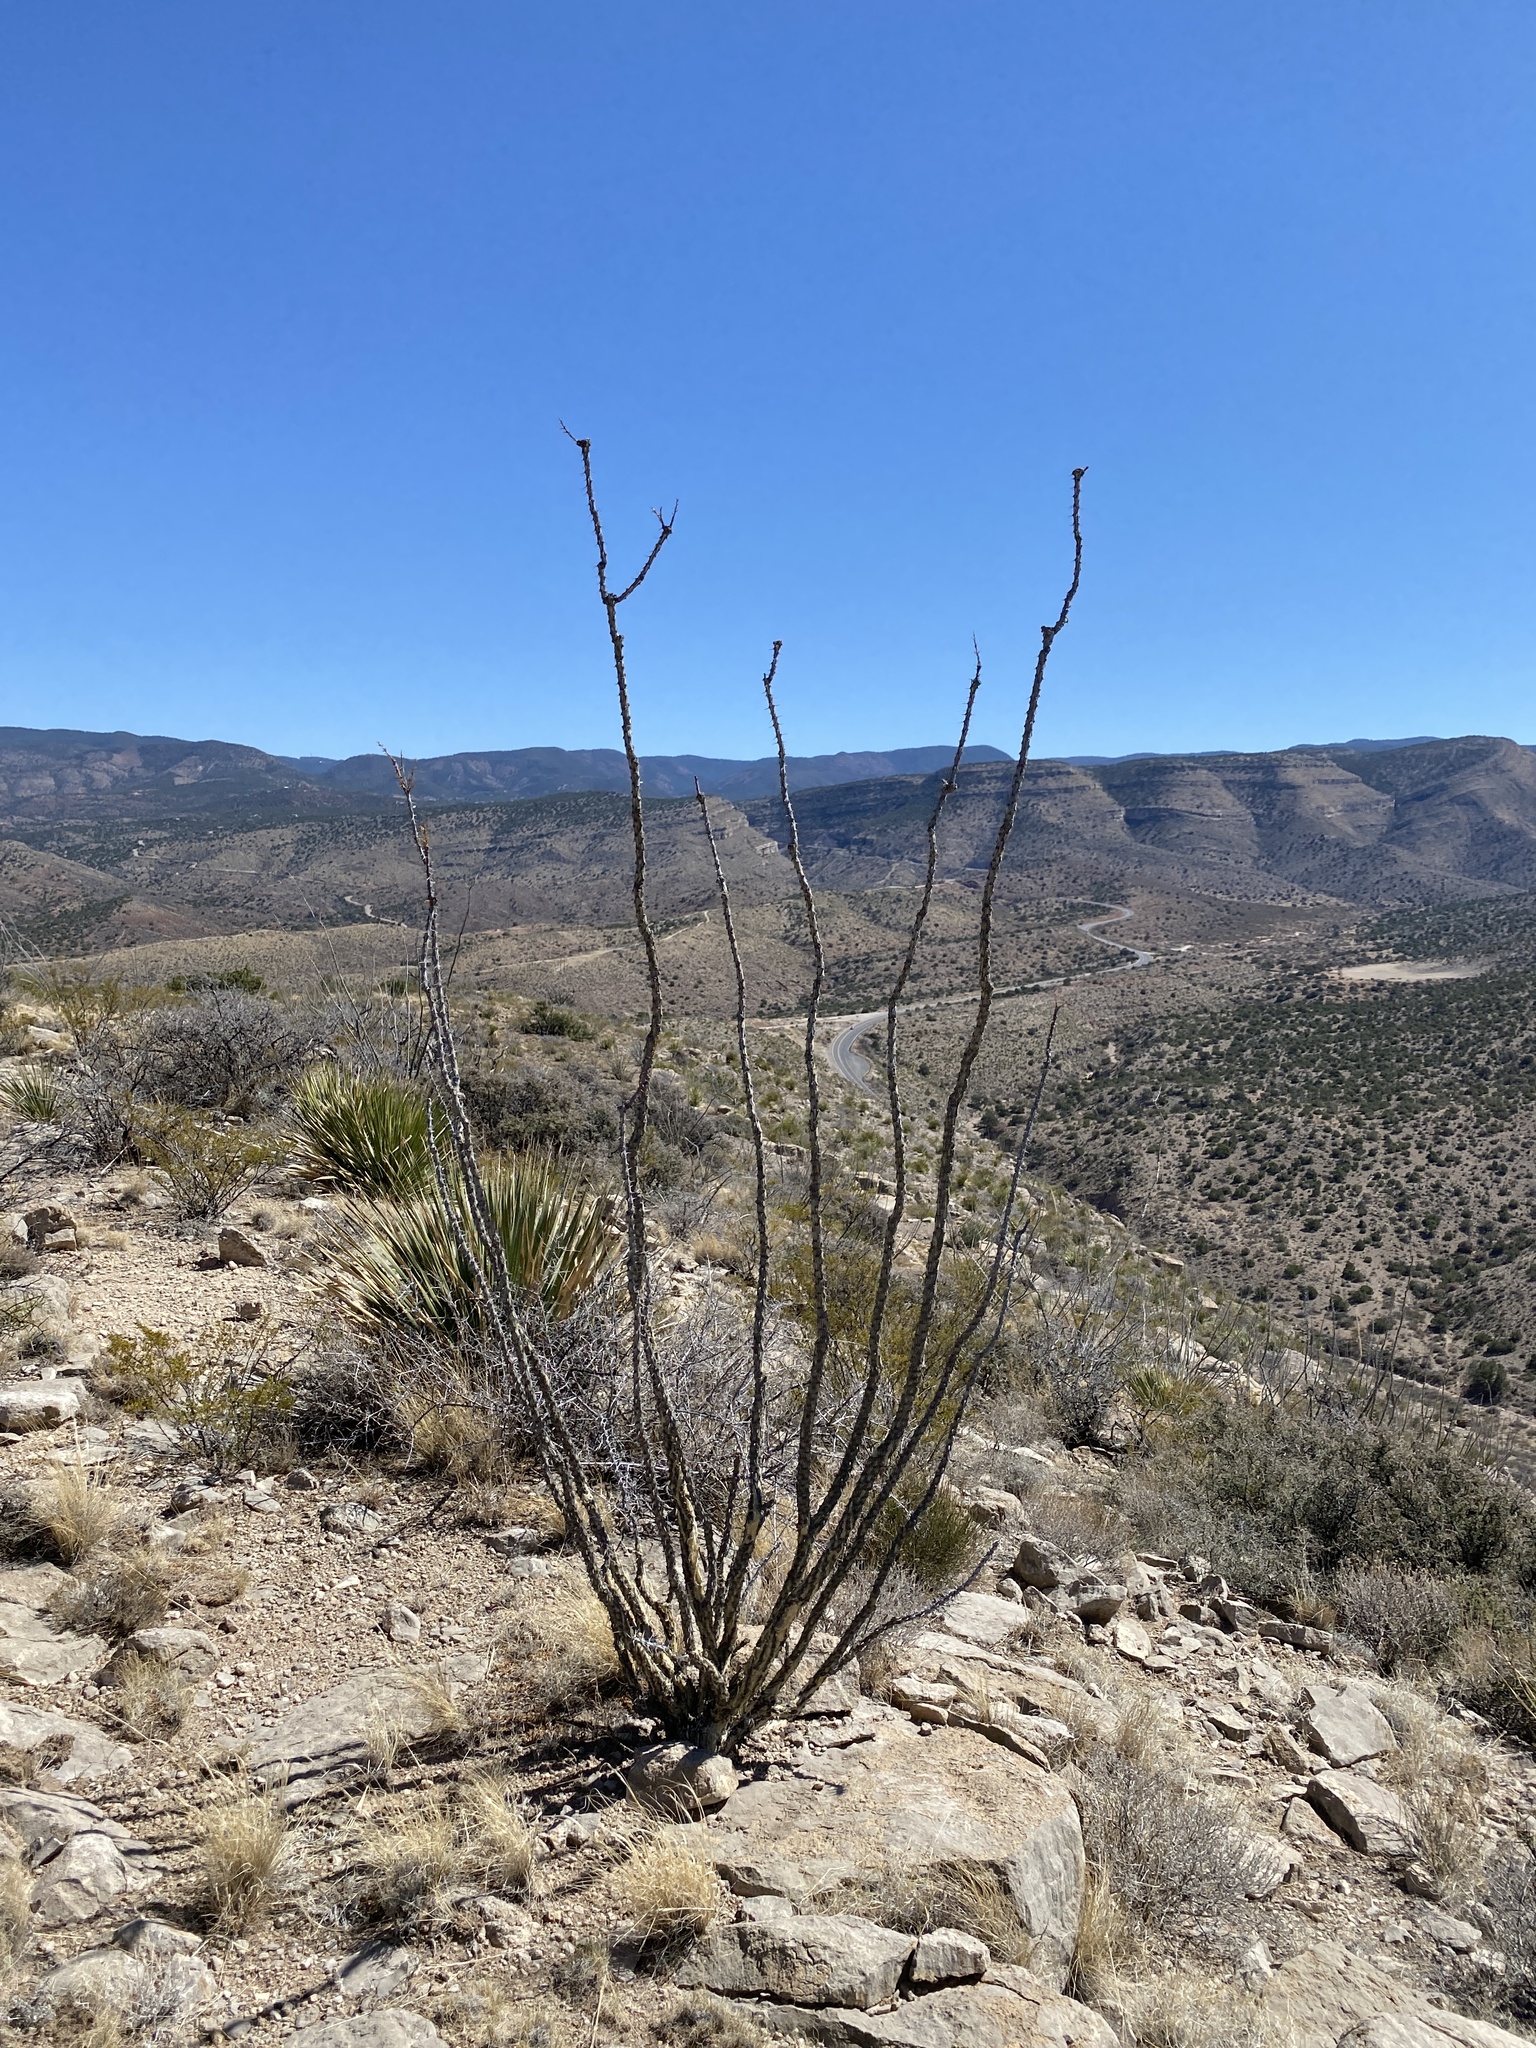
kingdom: Plantae
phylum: Tracheophyta
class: Magnoliopsida
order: Ericales
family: Fouquieriaceae
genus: Fouquieria
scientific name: Fouquieria splendens
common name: Vine-cactus
